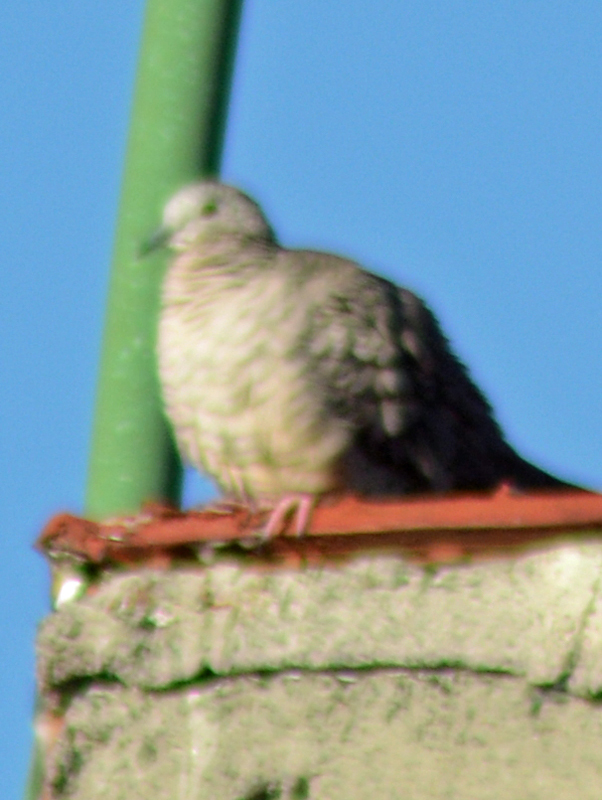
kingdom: Animalia
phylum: Chordata
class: Aves
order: Columbiformes
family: Columbidae
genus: Columbina
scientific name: Columbina inca
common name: Inca dove
